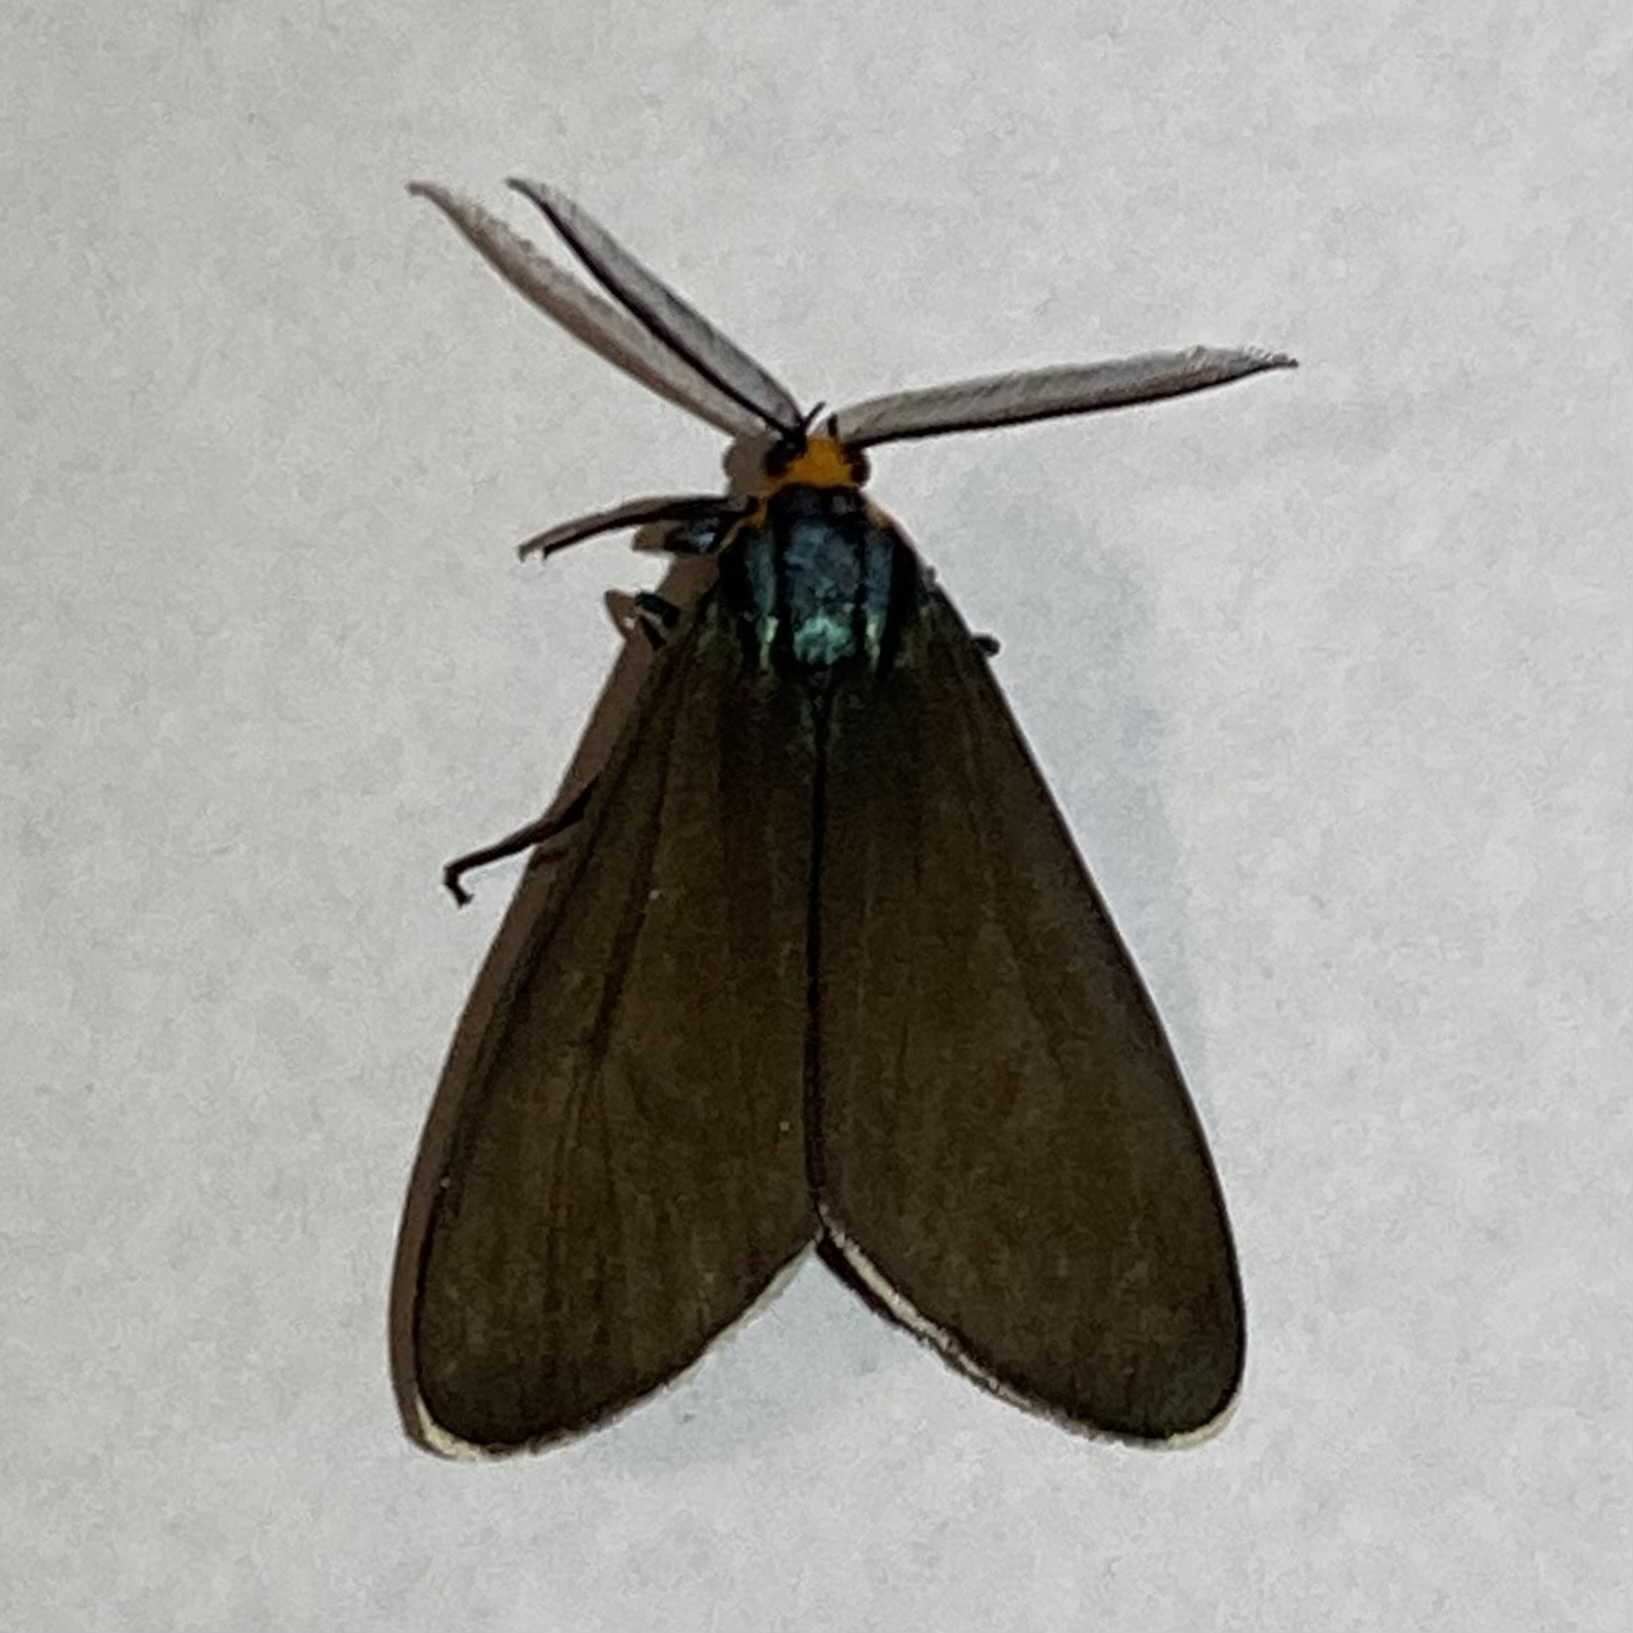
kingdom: Animalia
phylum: Arthropoda
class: Insecta
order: Lepidoptera
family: Erebidae
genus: Ctenucha
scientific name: Ctenucha virginica
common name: Virginia ctenucha moth
